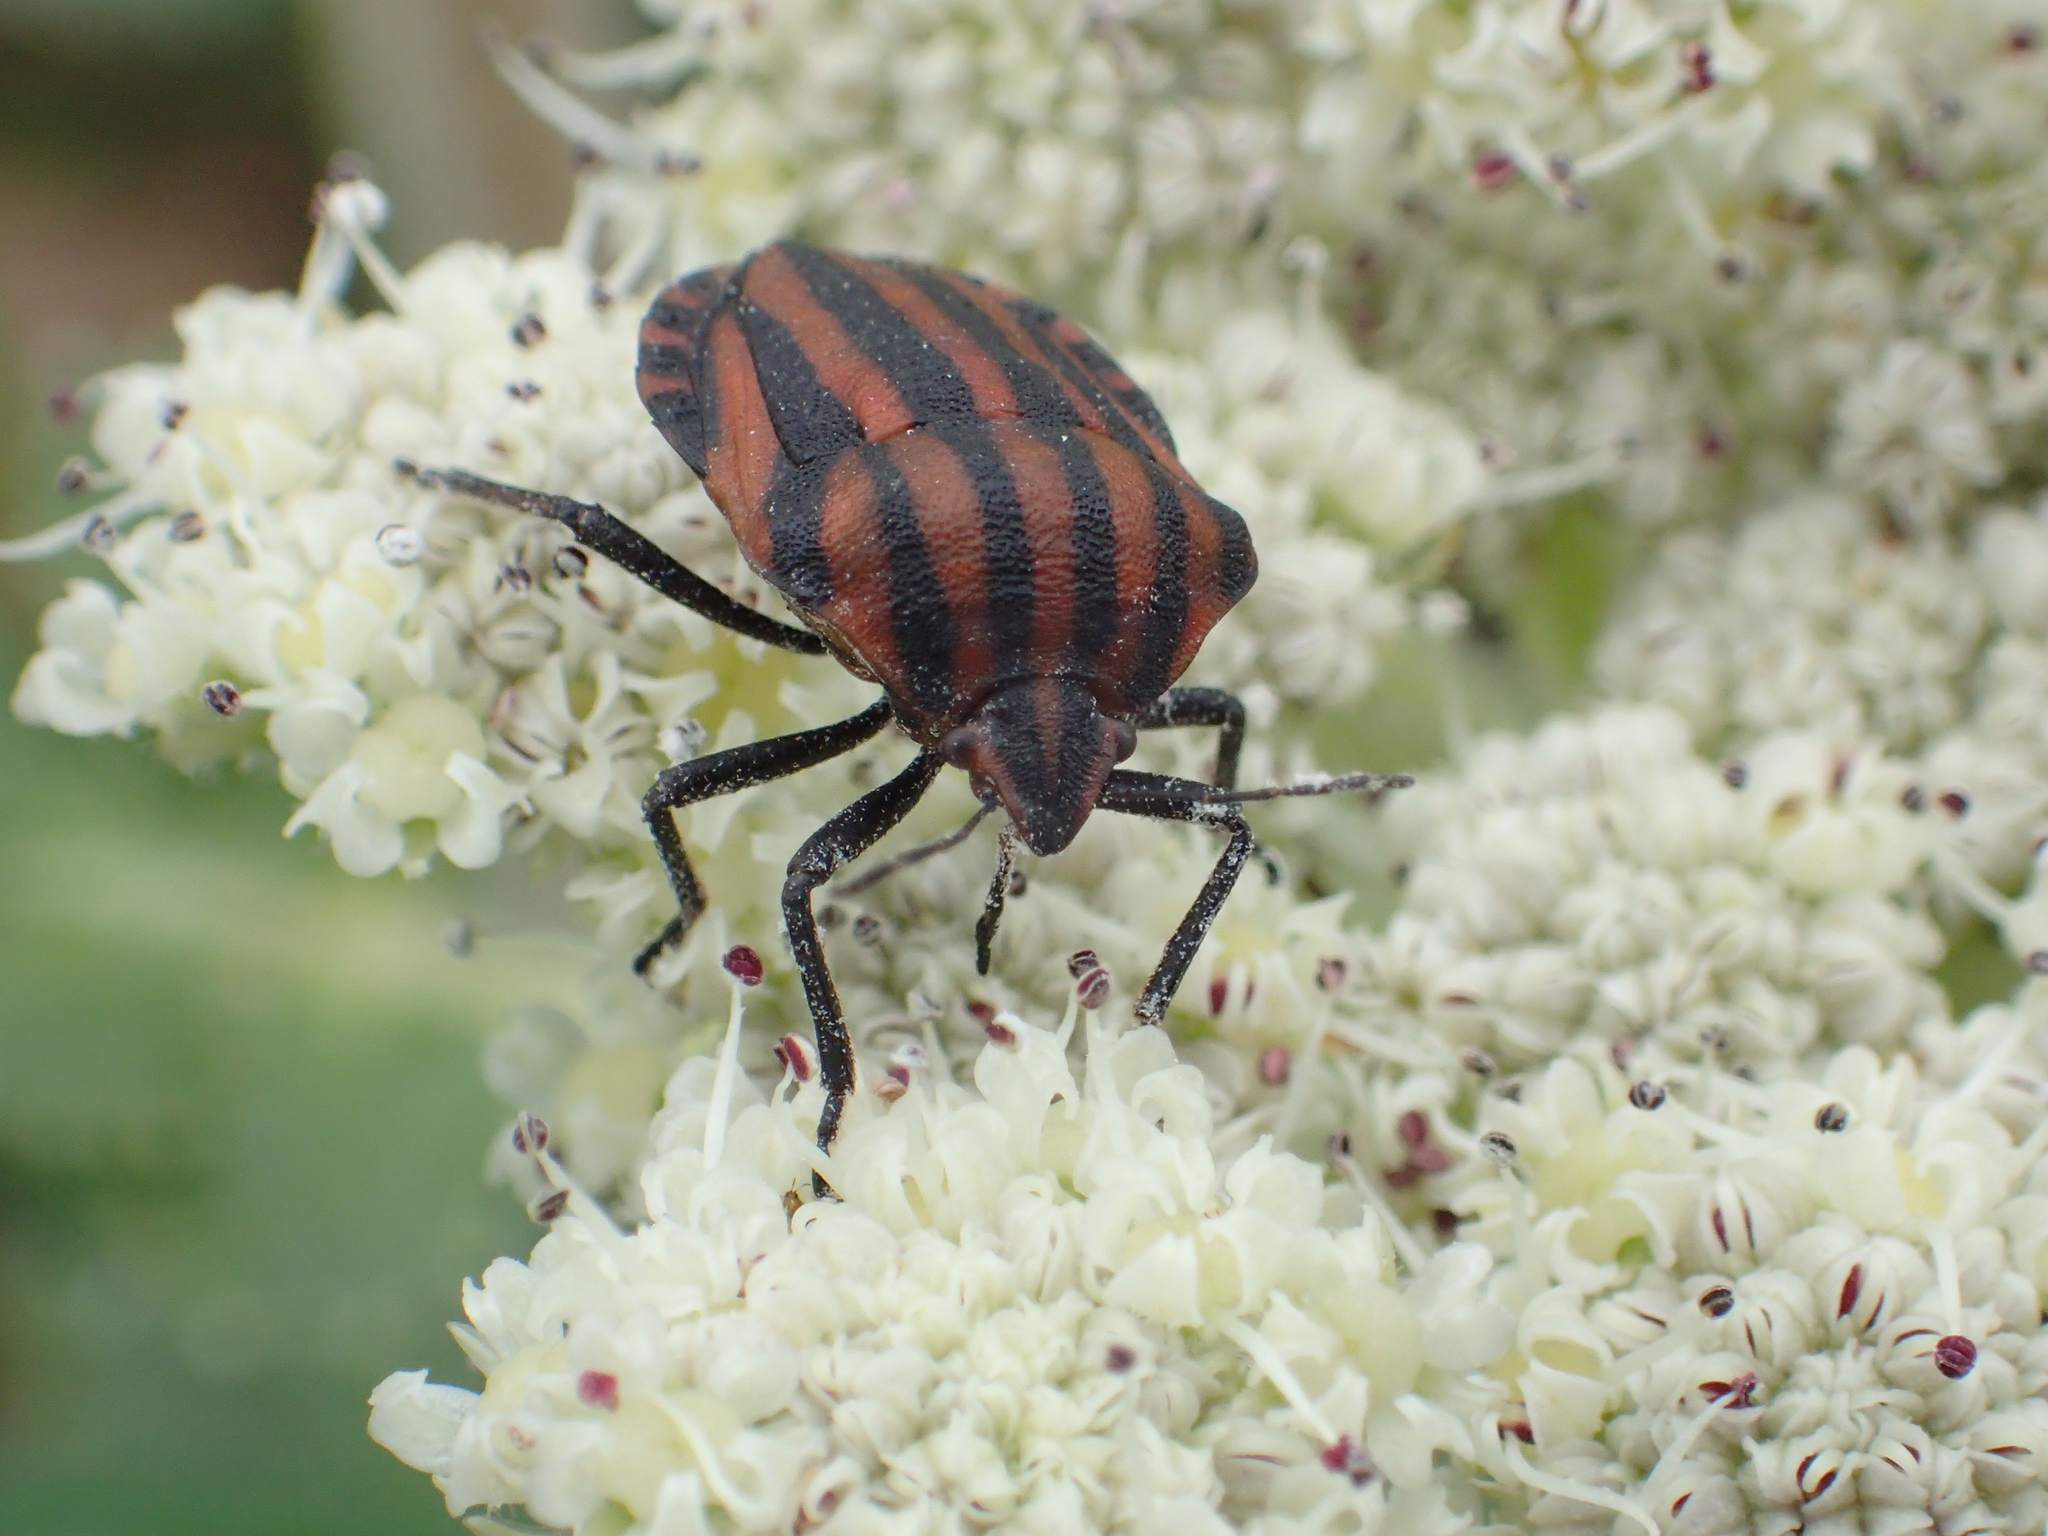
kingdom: Animalia
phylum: Arthropoda
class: Insecta
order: Hemiptera
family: Pentatomidae
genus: Graphosoma
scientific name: Graphosoma rubrolineatum
